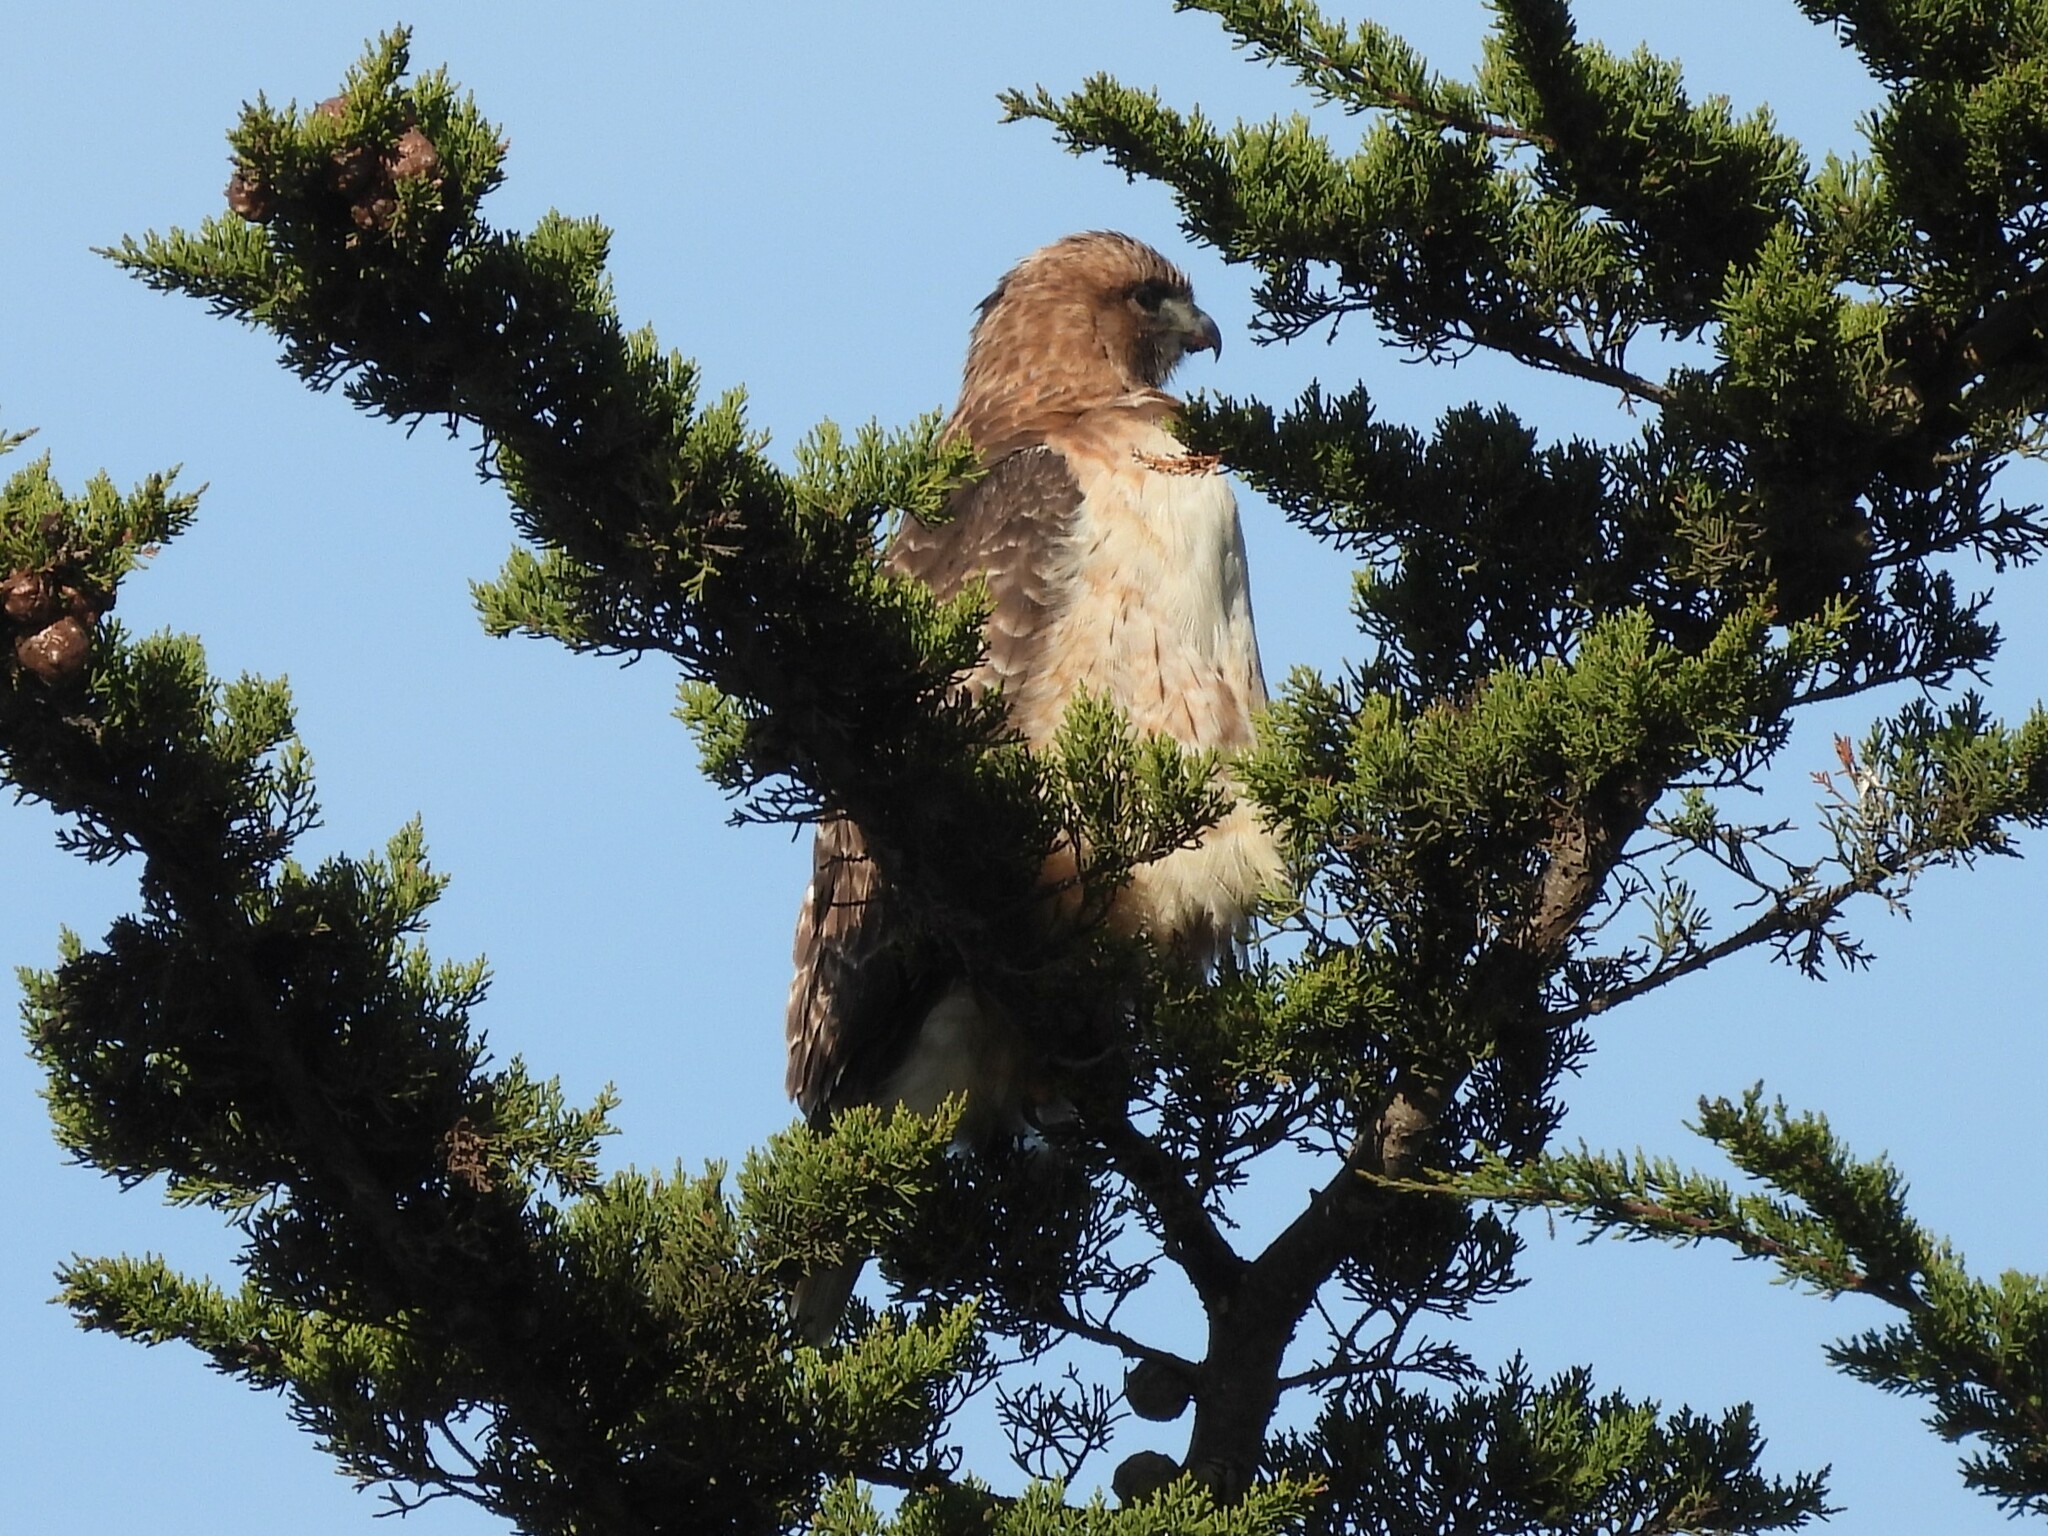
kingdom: Animalia
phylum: Chordata
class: Aves
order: Accipitriformes
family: Accipitridae
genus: Buteo
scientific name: Buteo jamaicensis
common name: Red-tailed hawk
